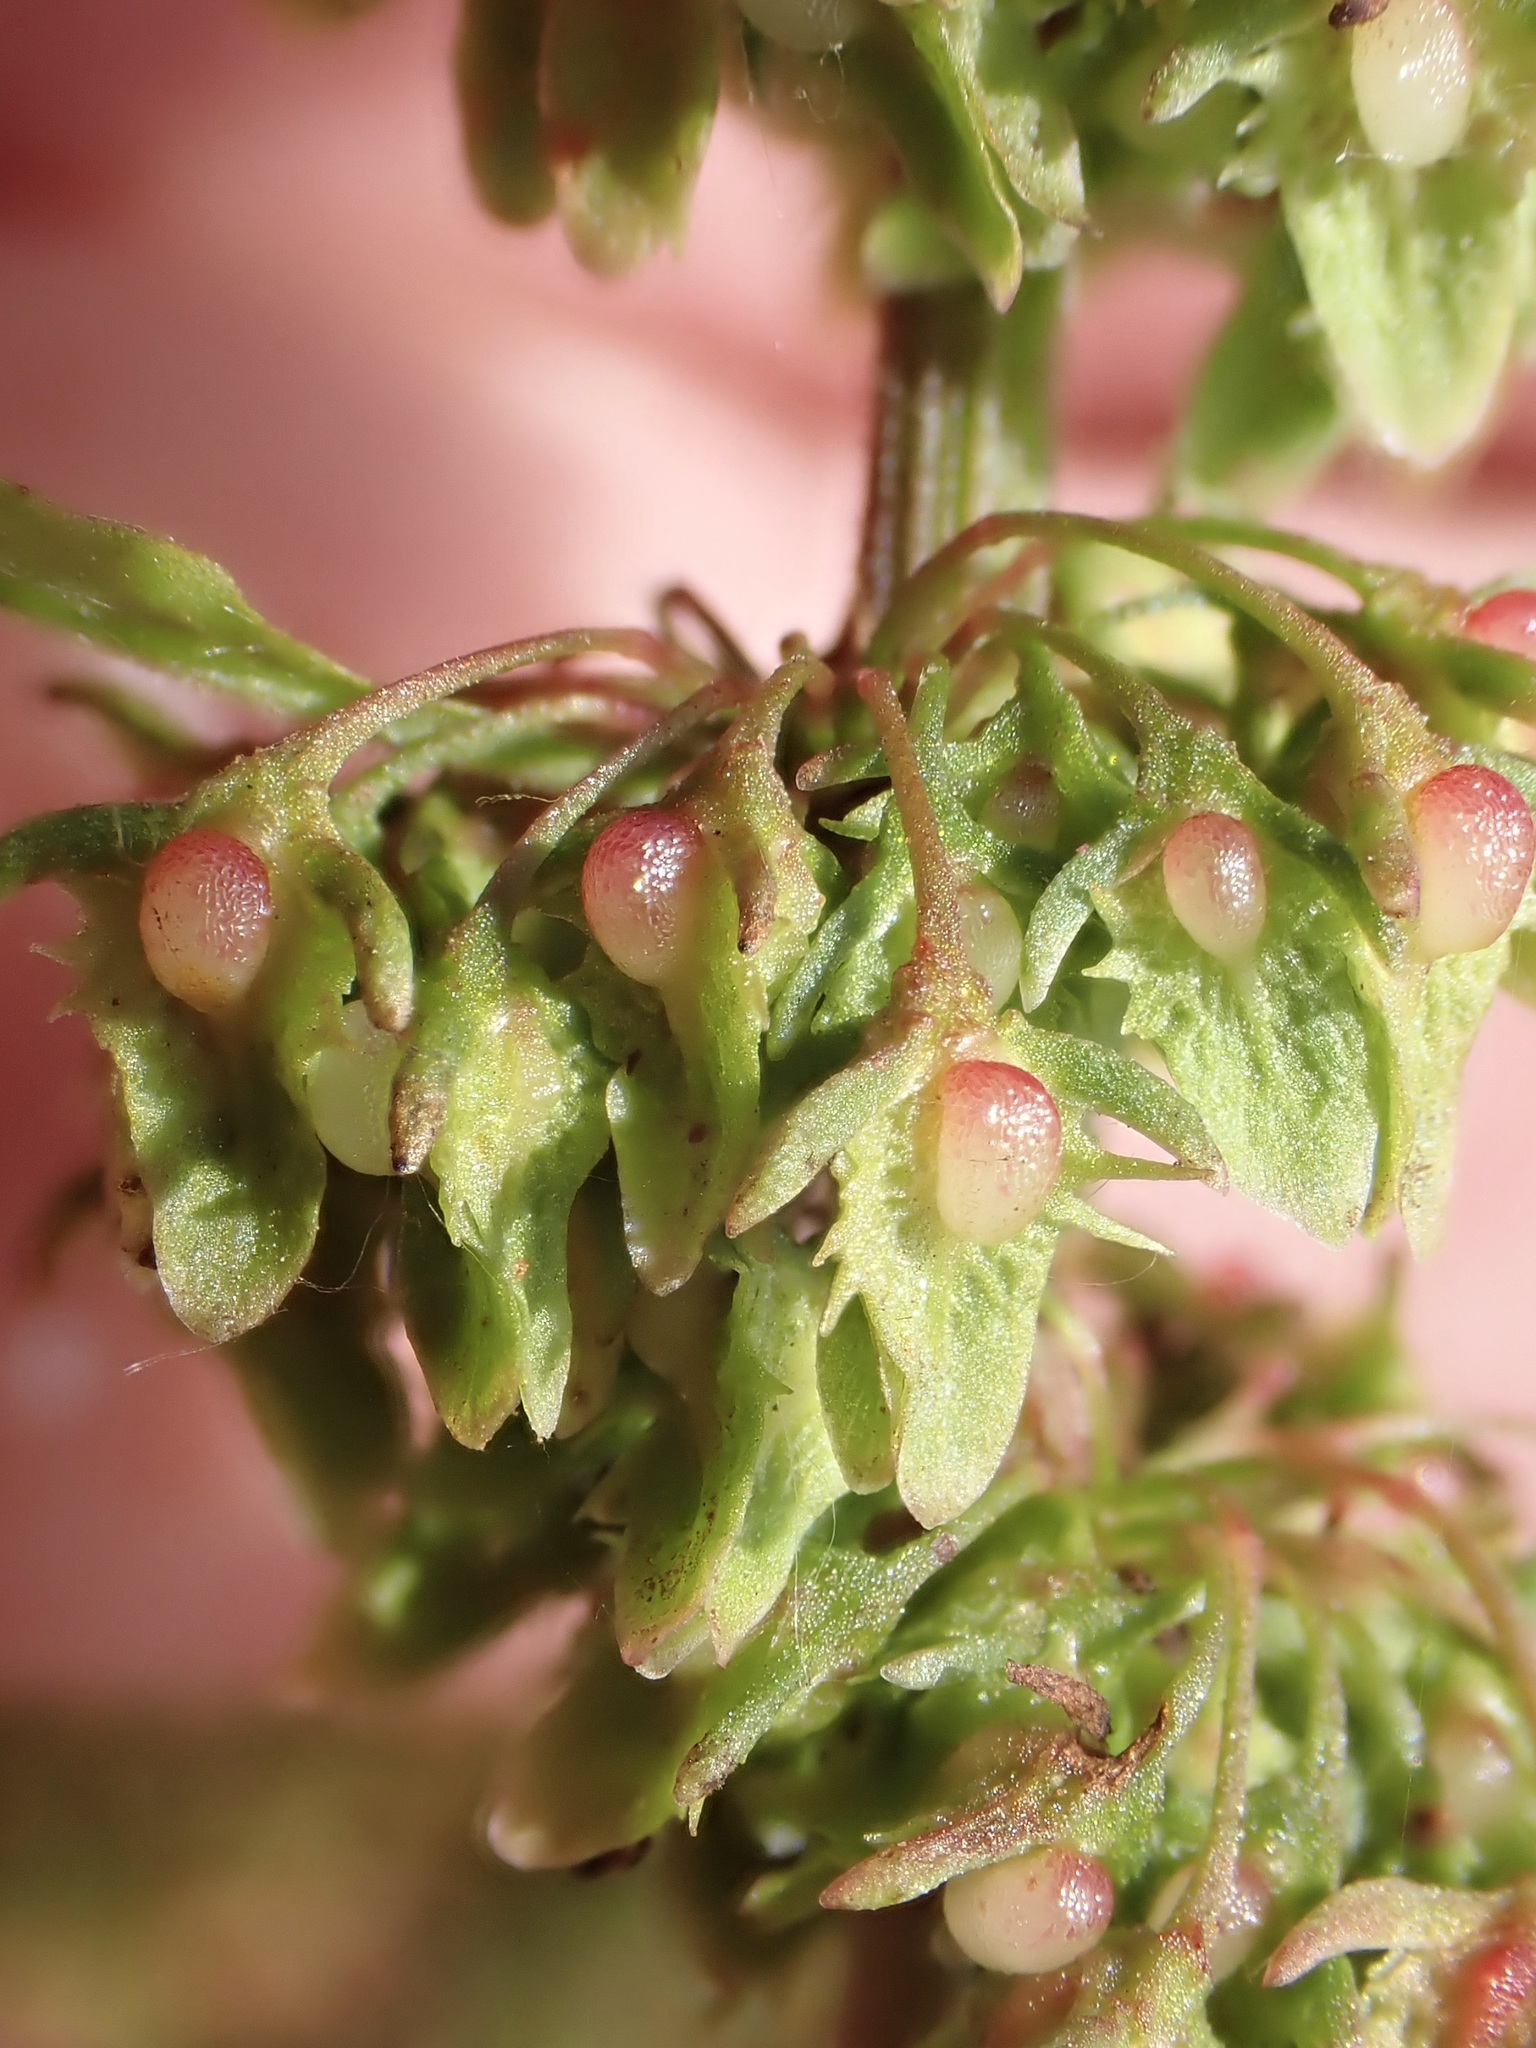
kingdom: Plantae
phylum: Tracheophyta
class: Magnoliopsida
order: Caryophyllales
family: Polygonaceae
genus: Rumex
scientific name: Rumex obtusifolius
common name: Bitter dock
